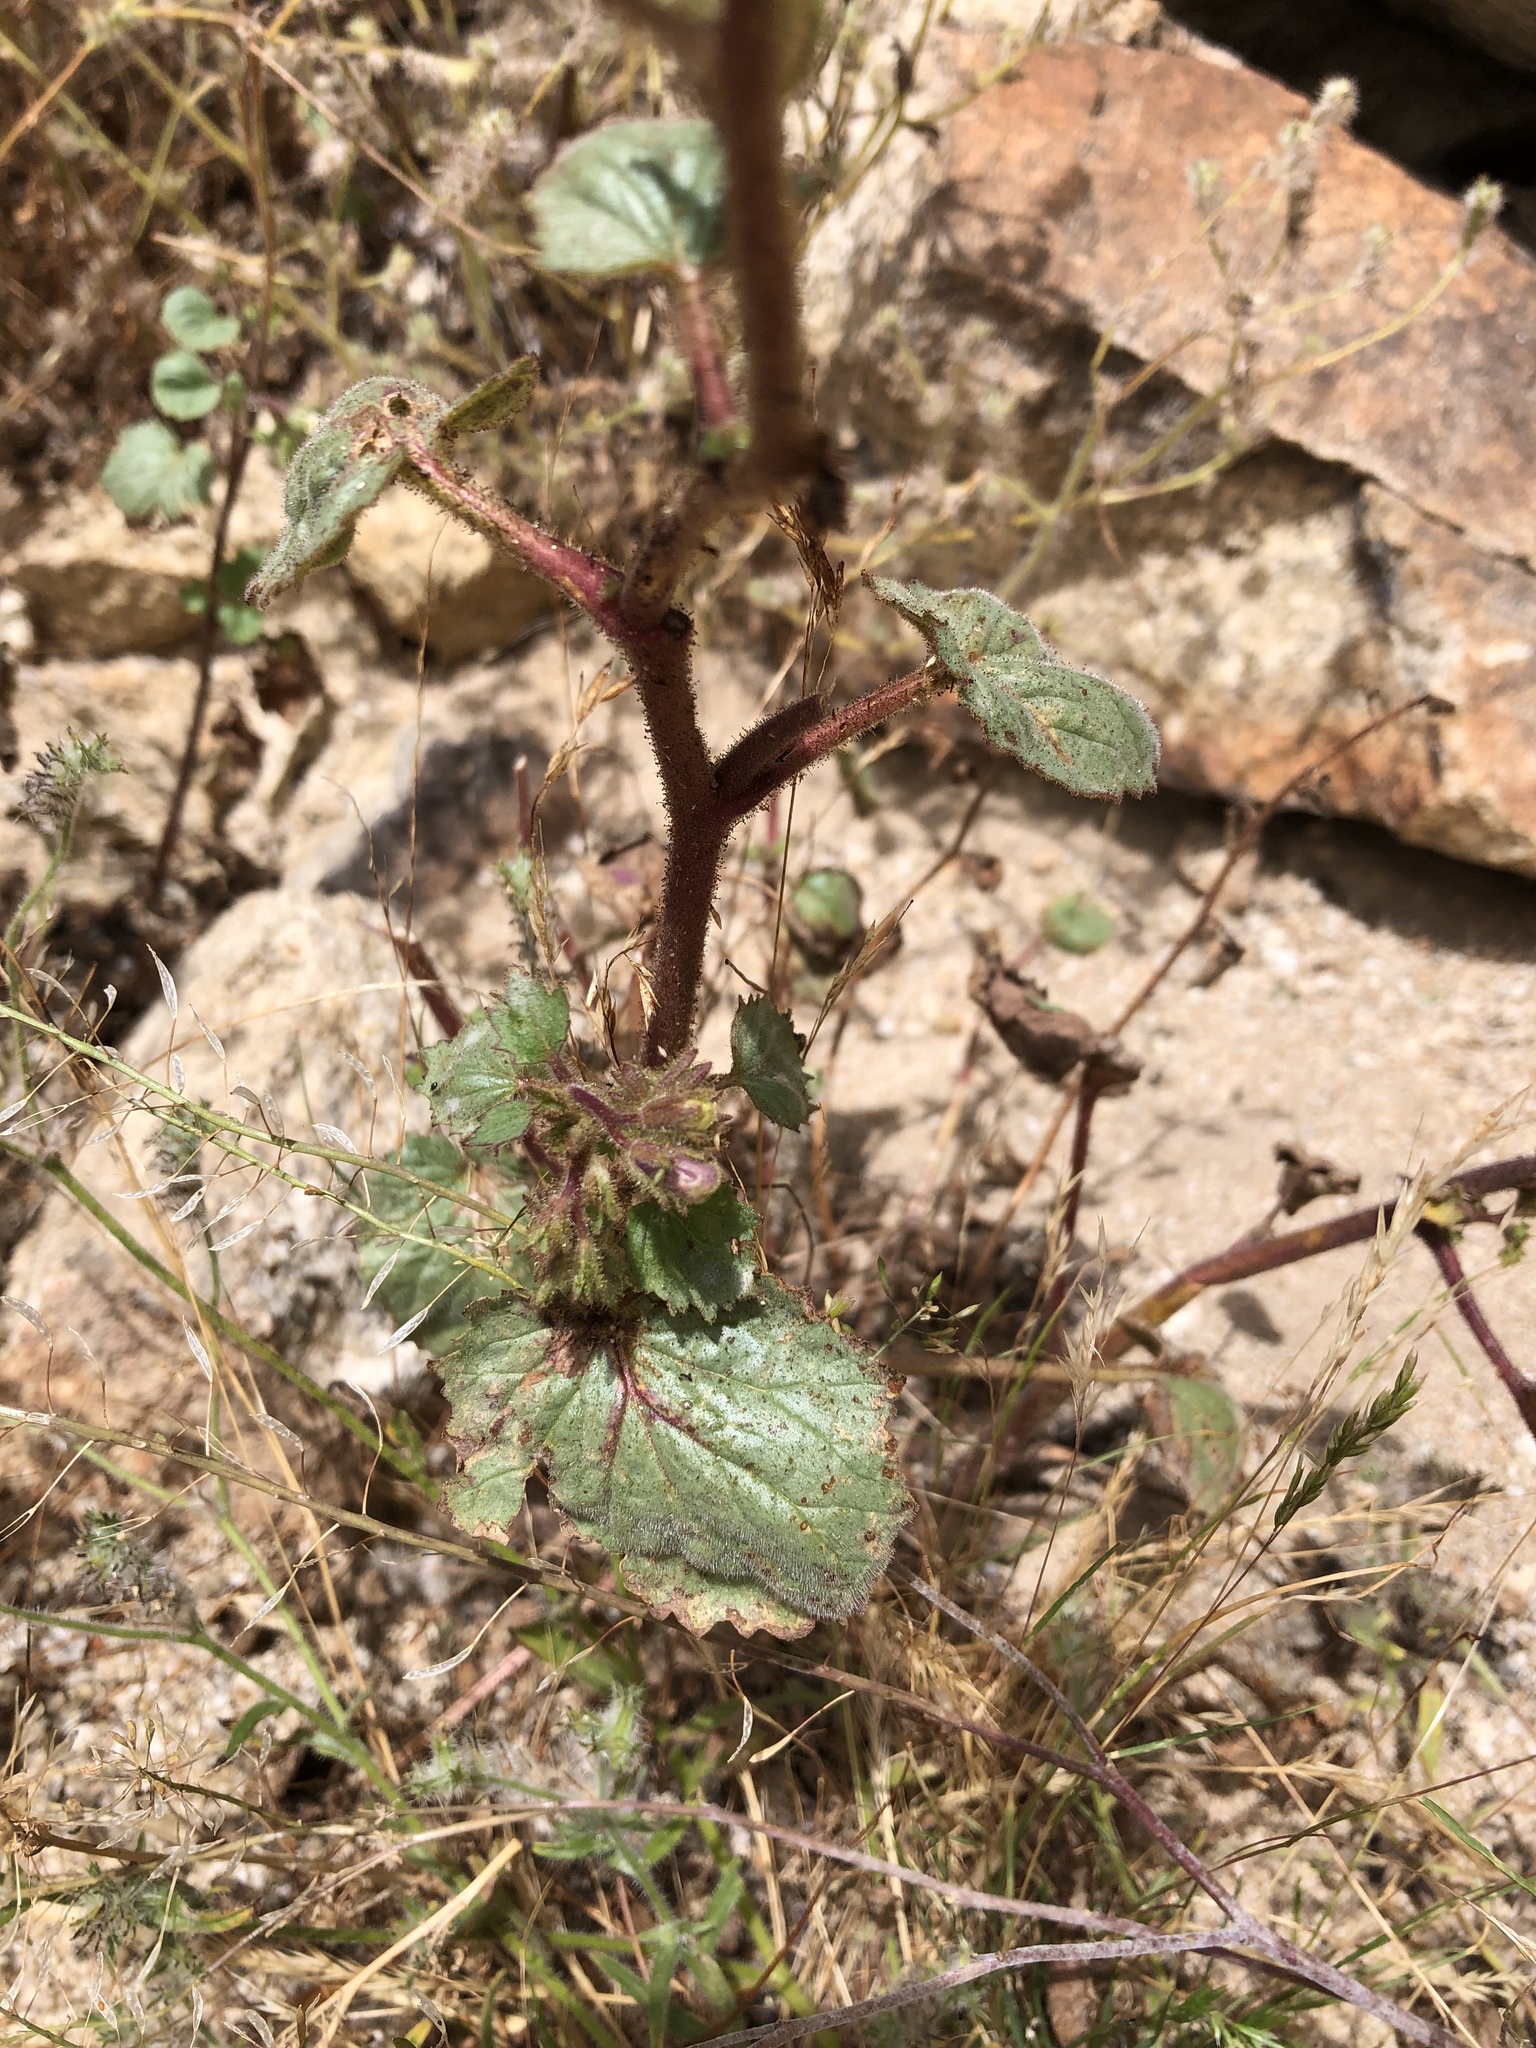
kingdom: Plantae
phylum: Tracheophyta
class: Magnoliopsida
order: Boraginales
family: Hydrophyllaceae
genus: Phacelia
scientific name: Phacelia campanularia
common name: California bluebell
